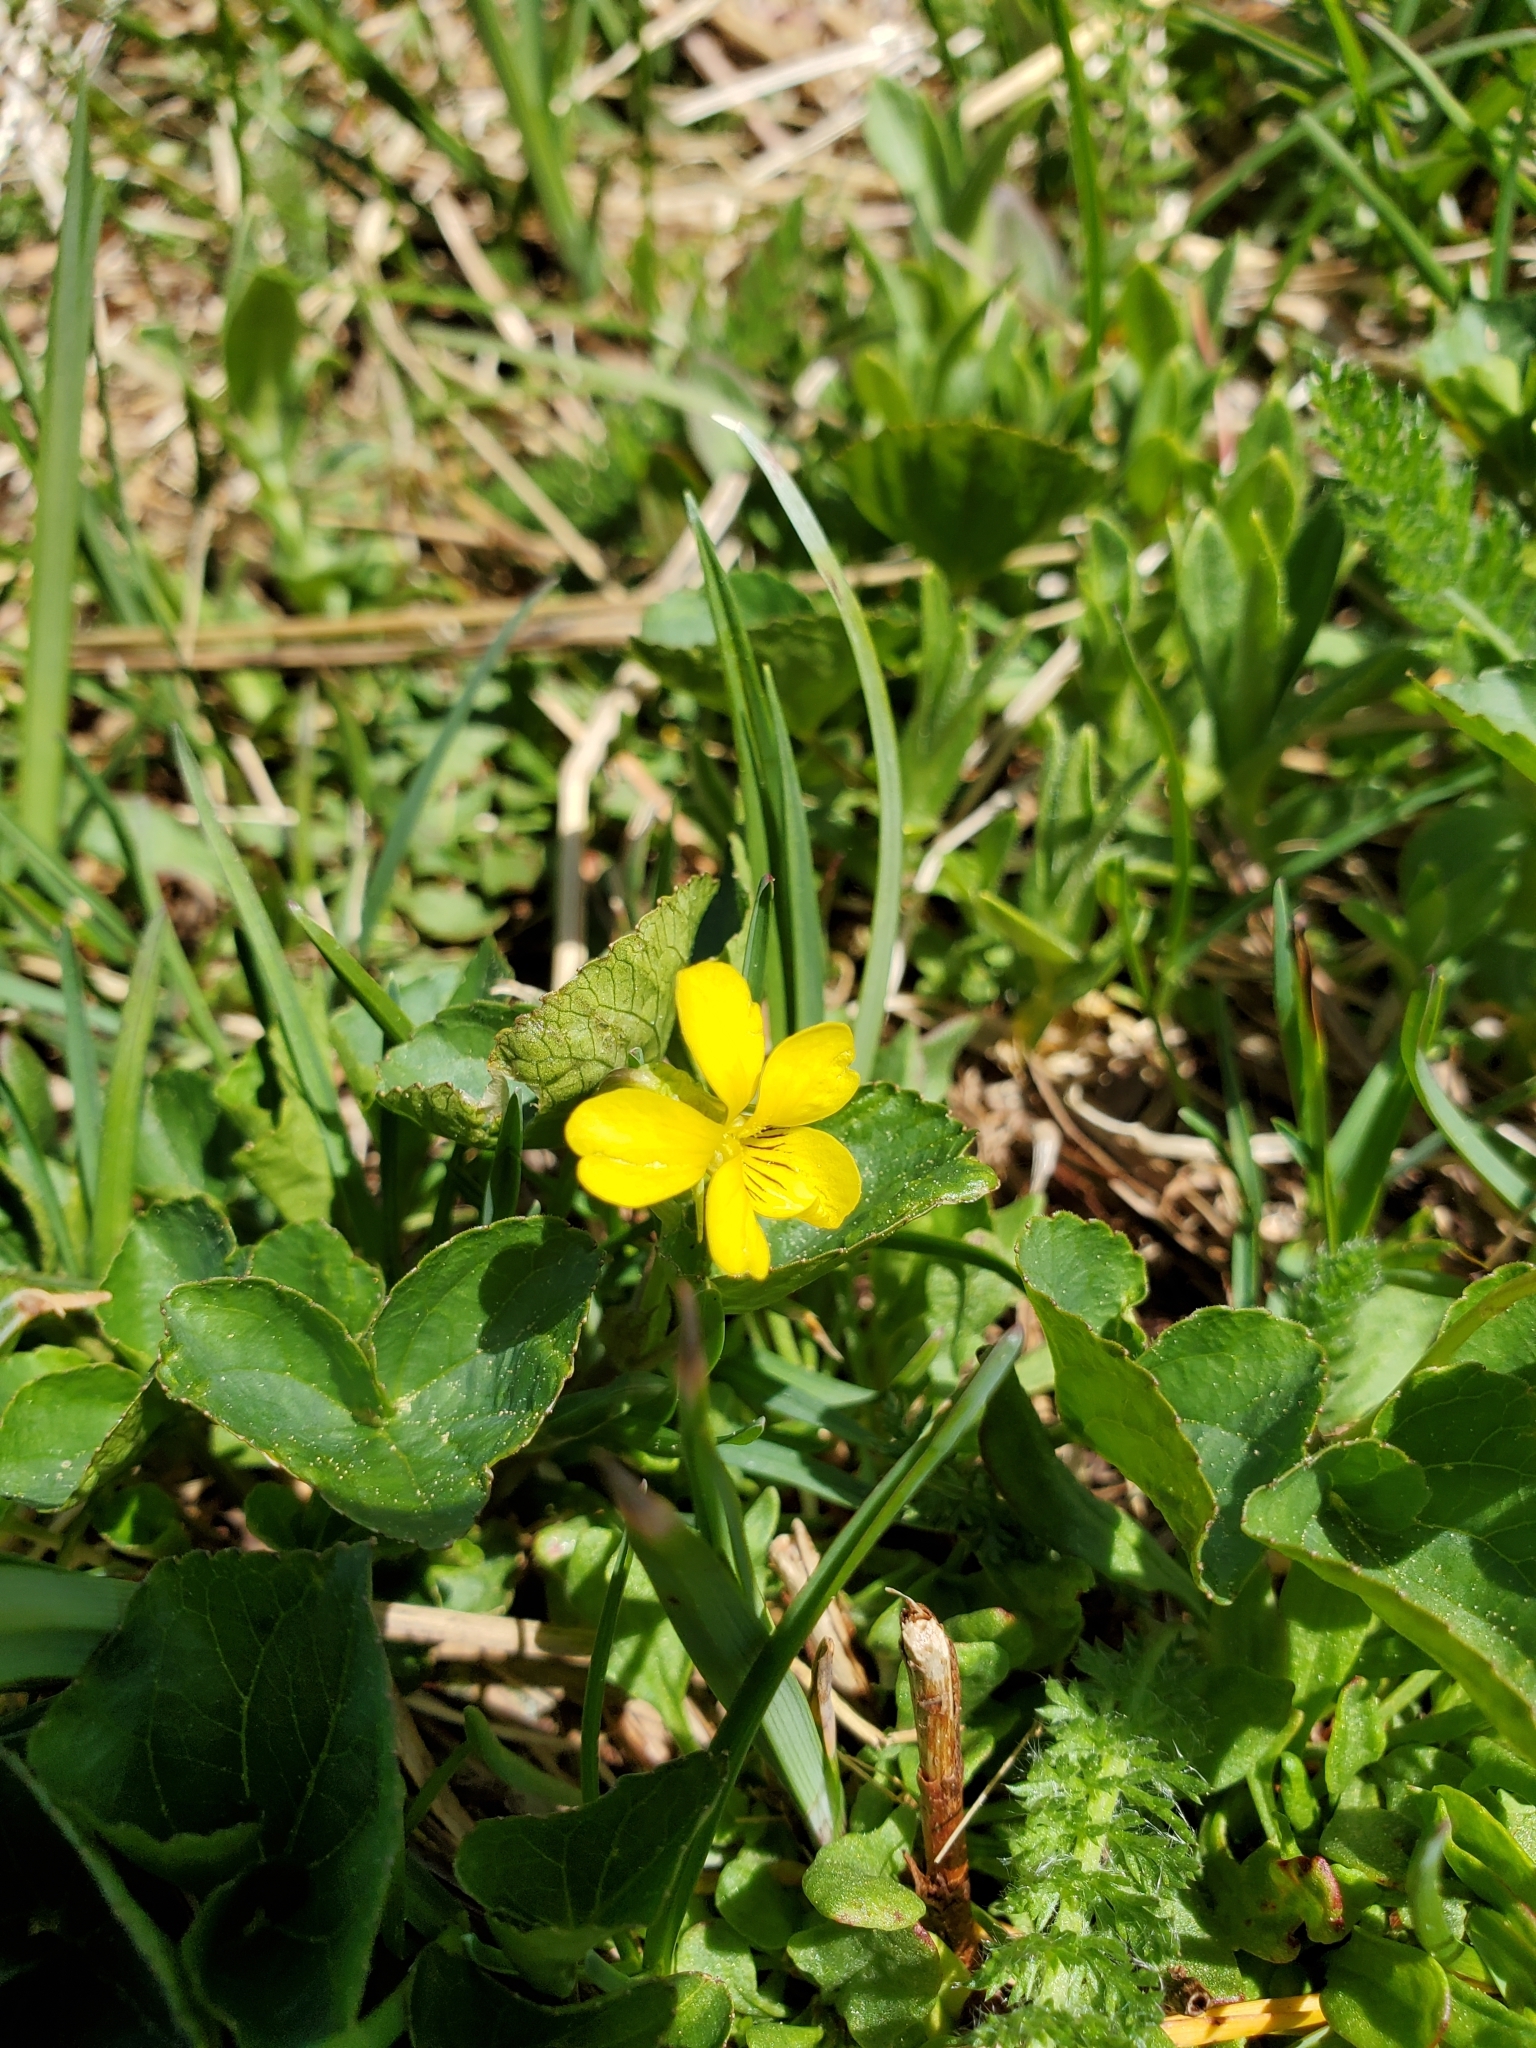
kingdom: Plantae
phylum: Tracheophyta
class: Magnoliopsida
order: Malpighiales
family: Violaceae
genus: Viola
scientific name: Viola glabella
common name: Stream violet
